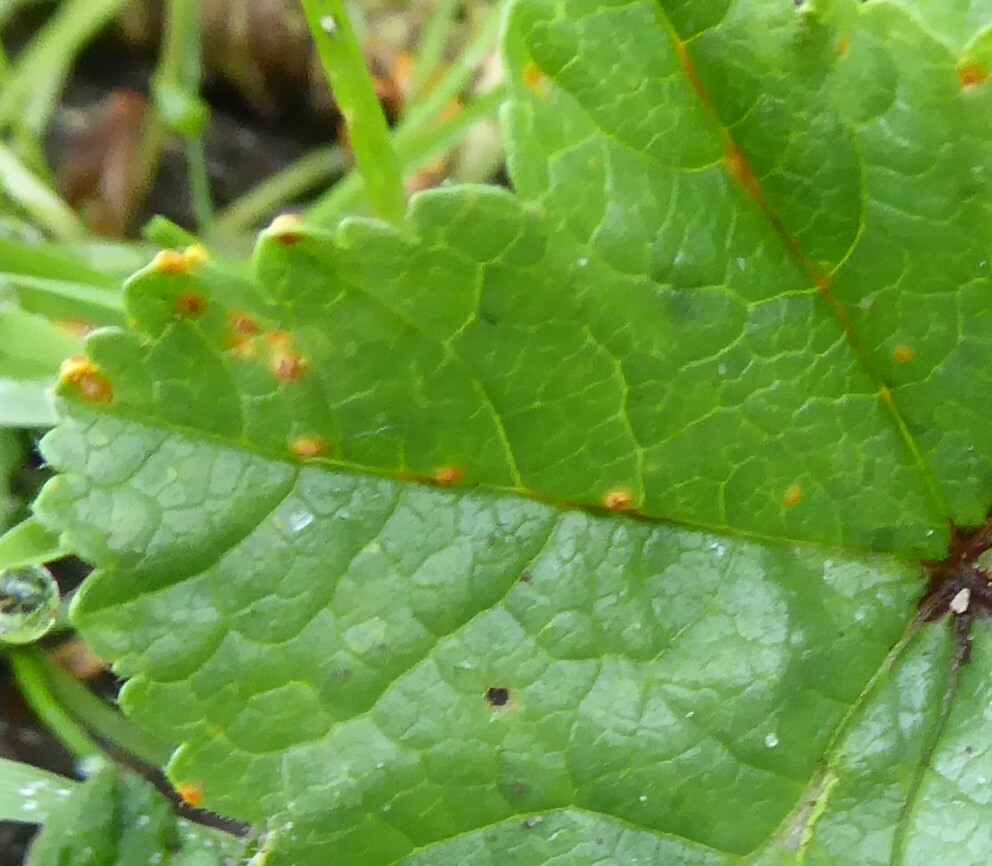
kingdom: Fungi
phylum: Basidiomycota
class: Pucciniomycetes
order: Pucciniales
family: Pucciniaceae
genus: Puccinia
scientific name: Puccinia malvacearum
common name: Hollyhock rust
